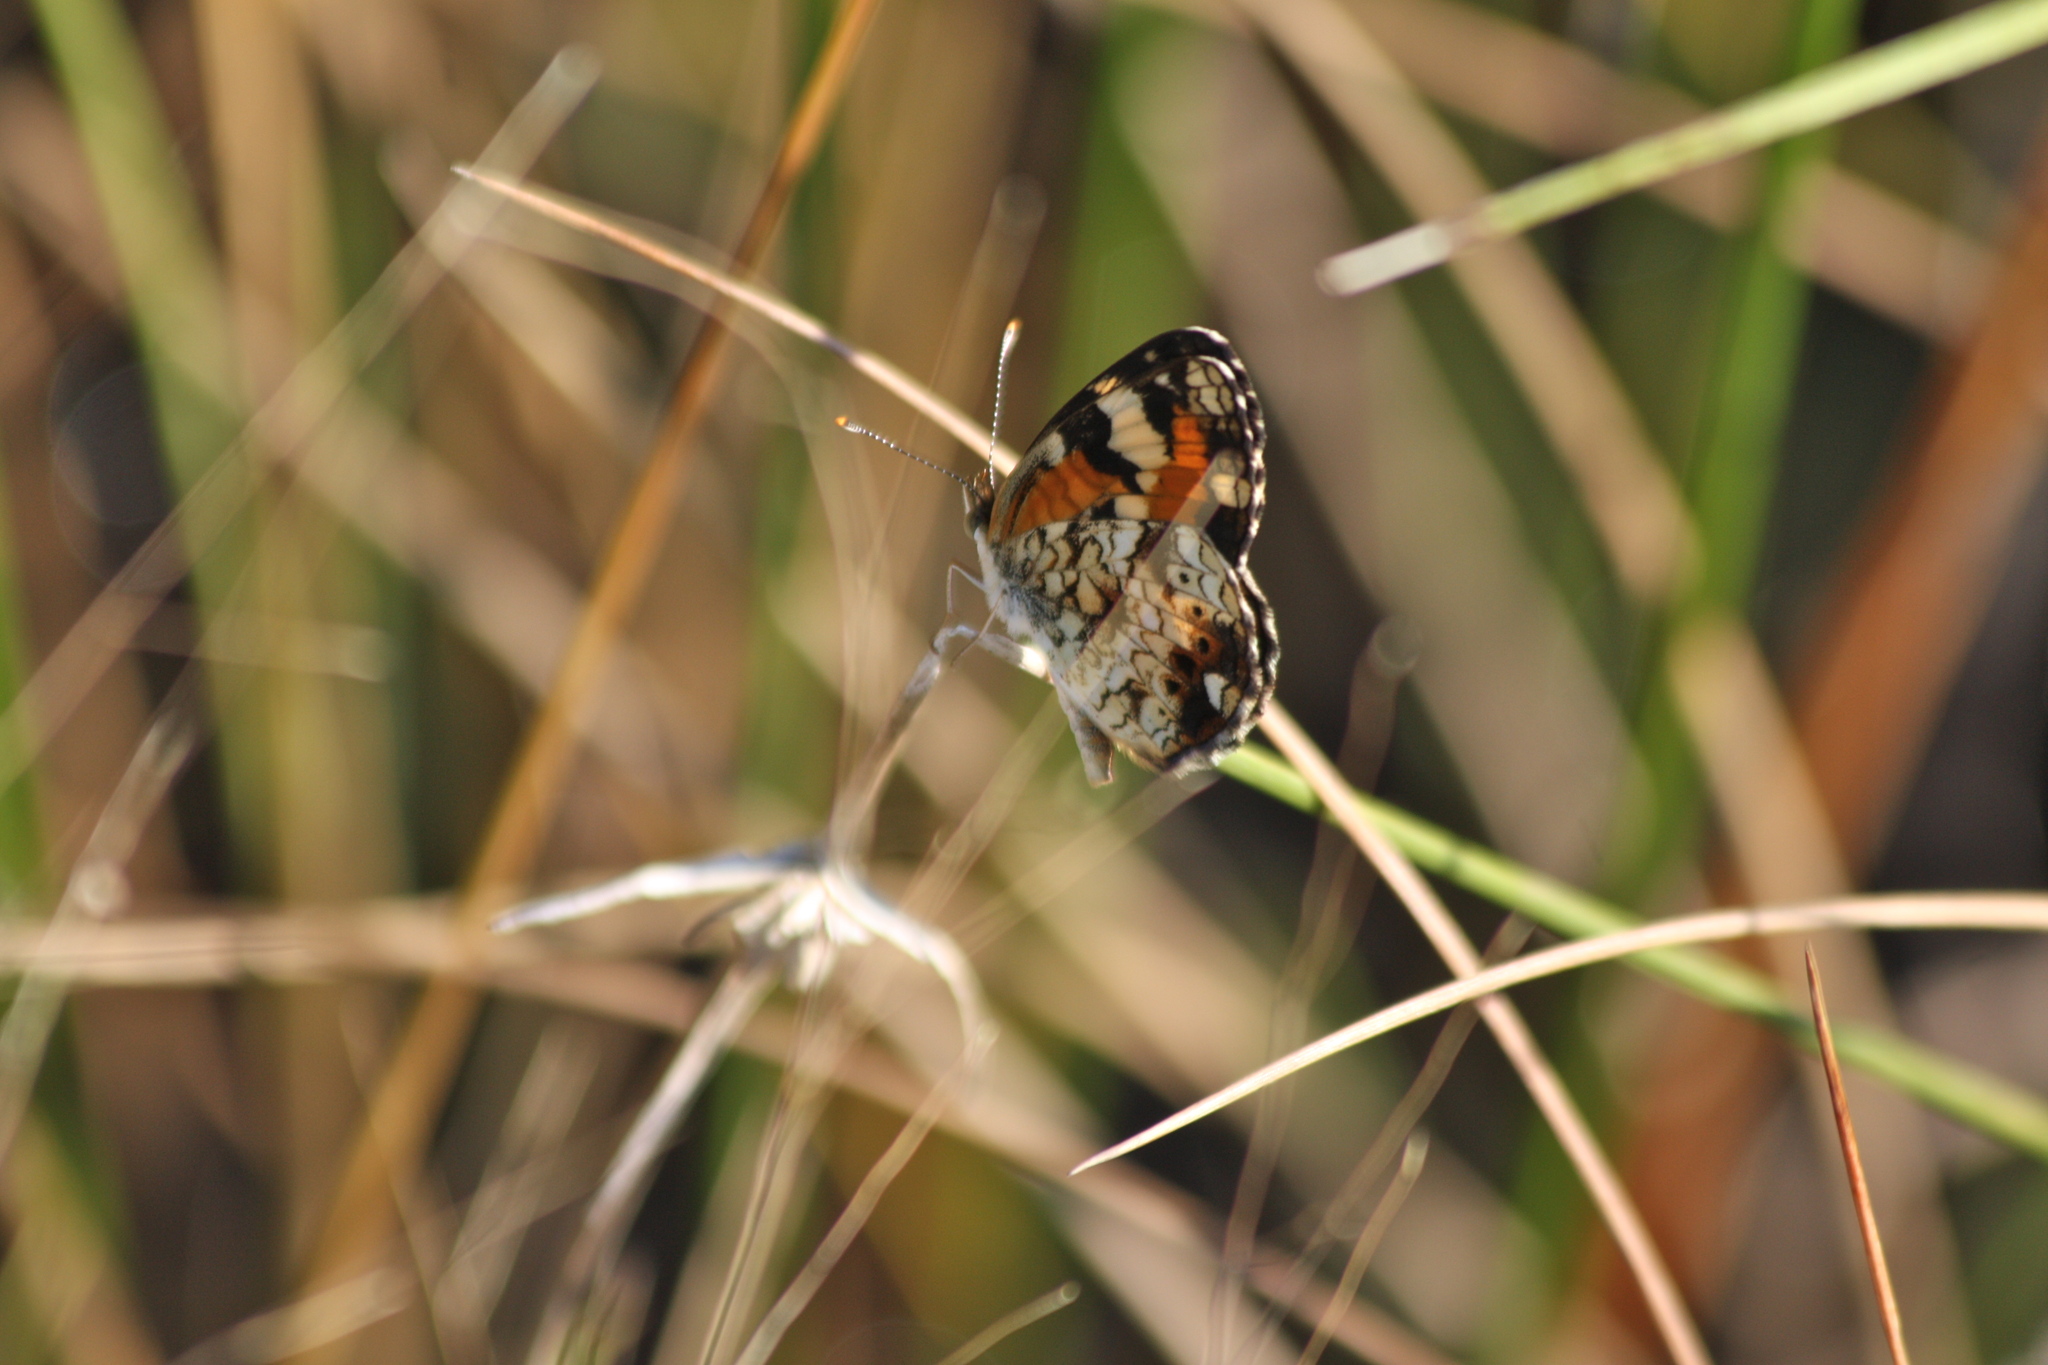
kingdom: Animalia
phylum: Arthropoda
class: Insecta
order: Lepidoptera
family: Nymphalidae
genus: Phyciodes
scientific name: Phyciodes phaon
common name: Phaon crescent
